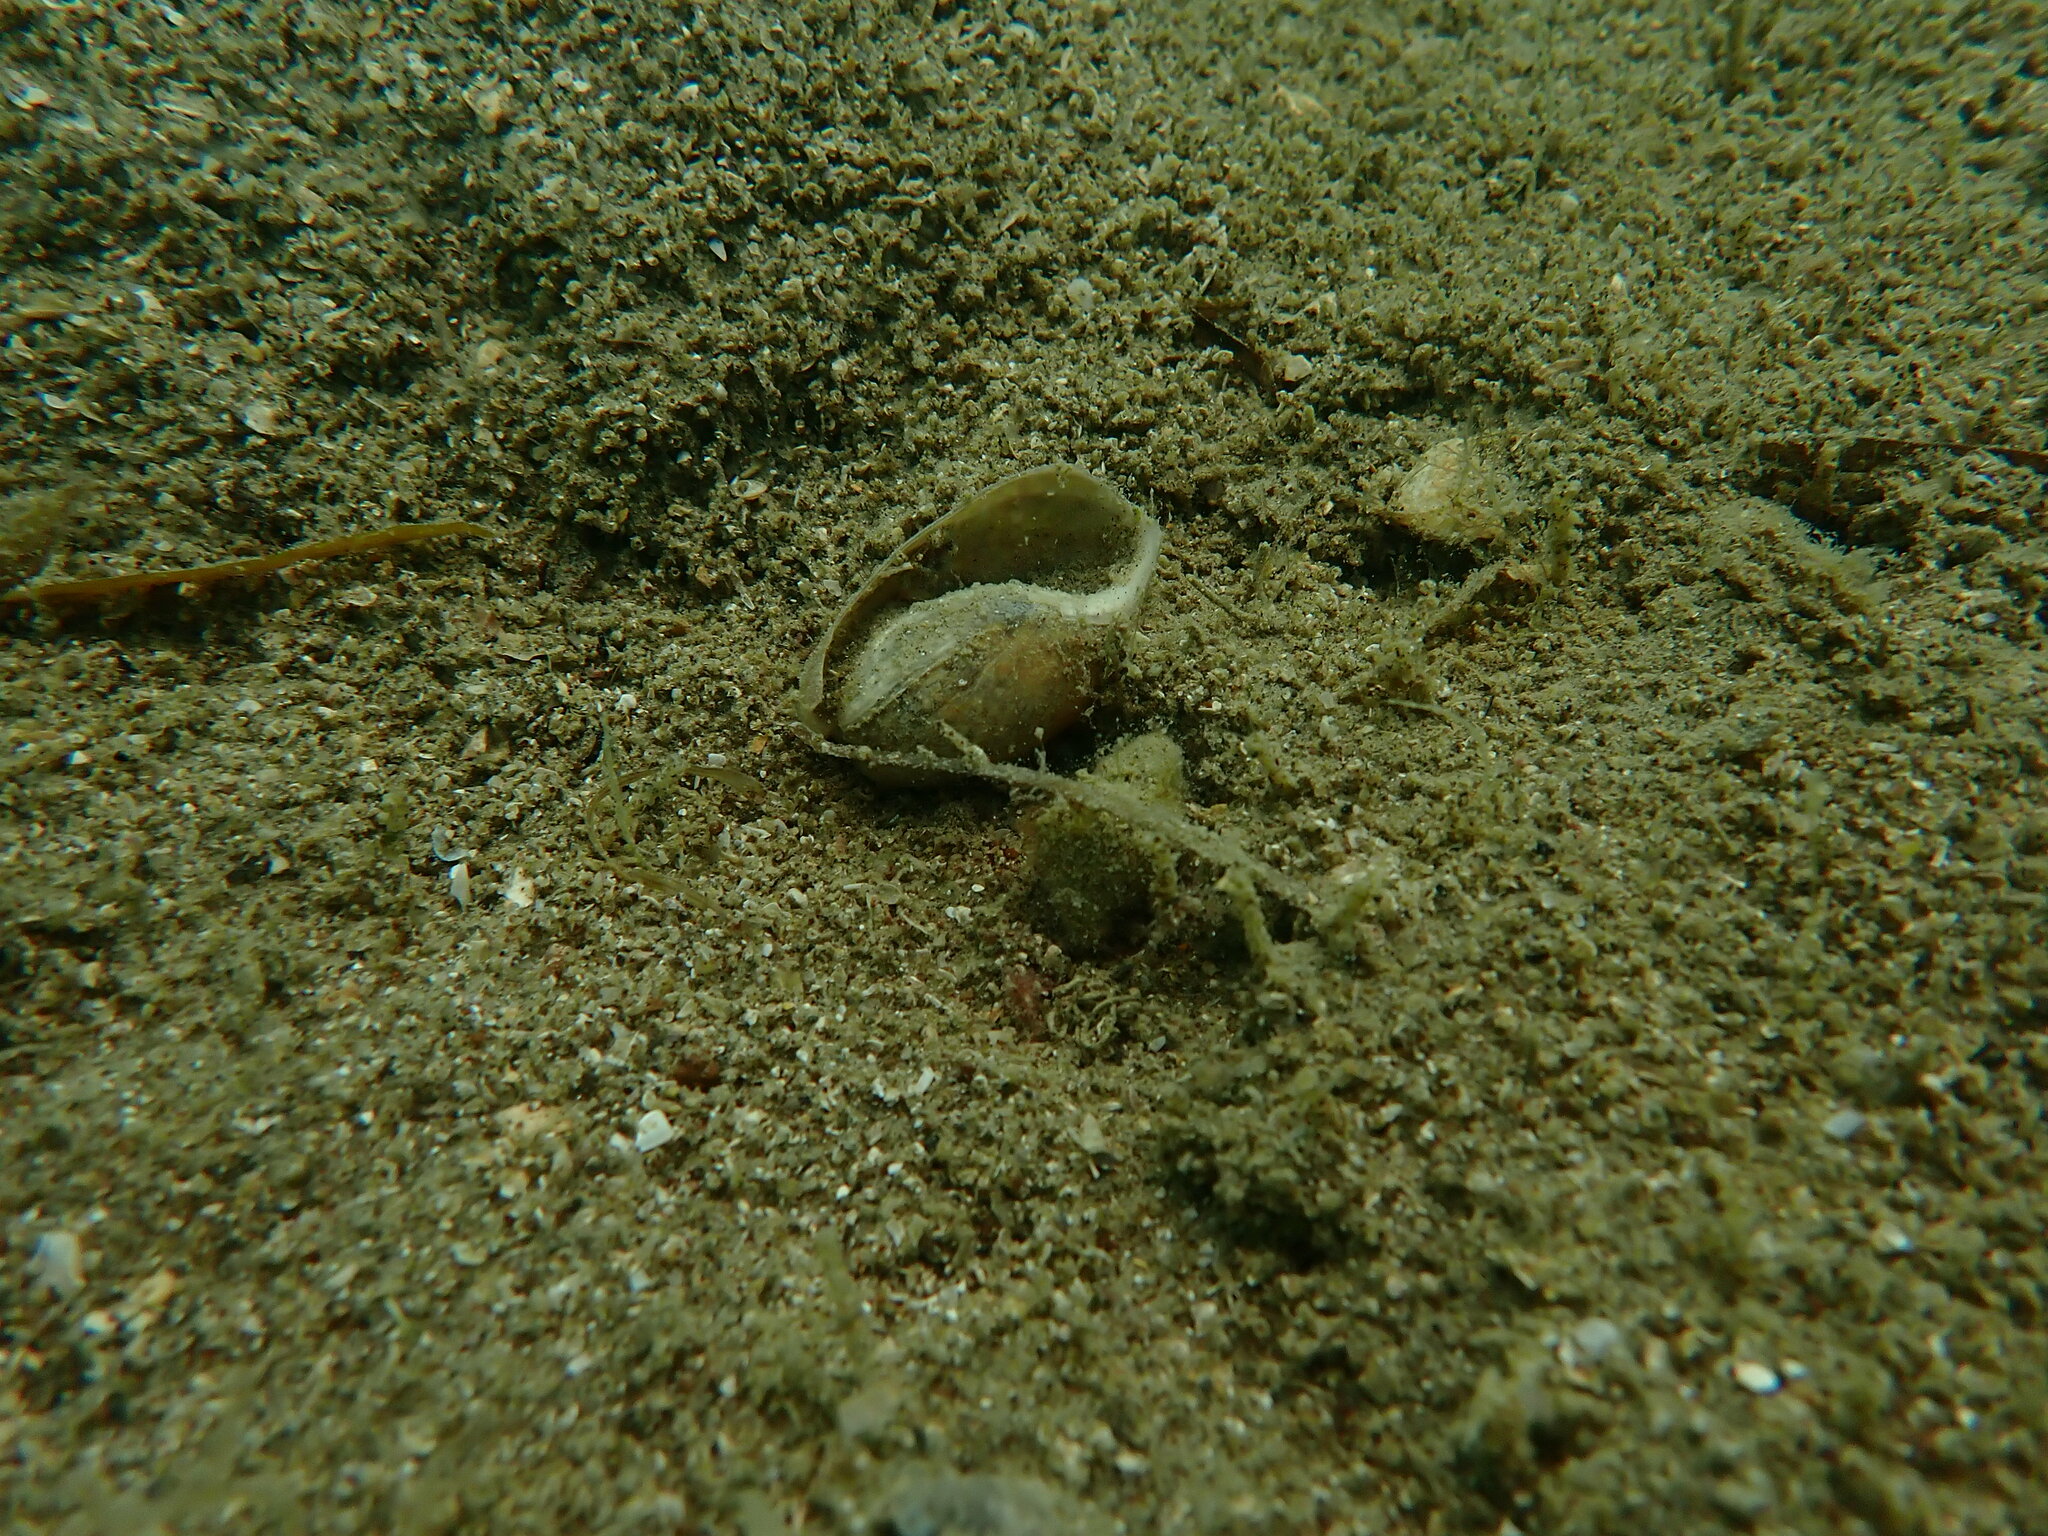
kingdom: Animalia
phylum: Mollusca
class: Gastropoda
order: Cephalaspidea
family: Bullidae
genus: Bulla
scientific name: Bulla quoyii
